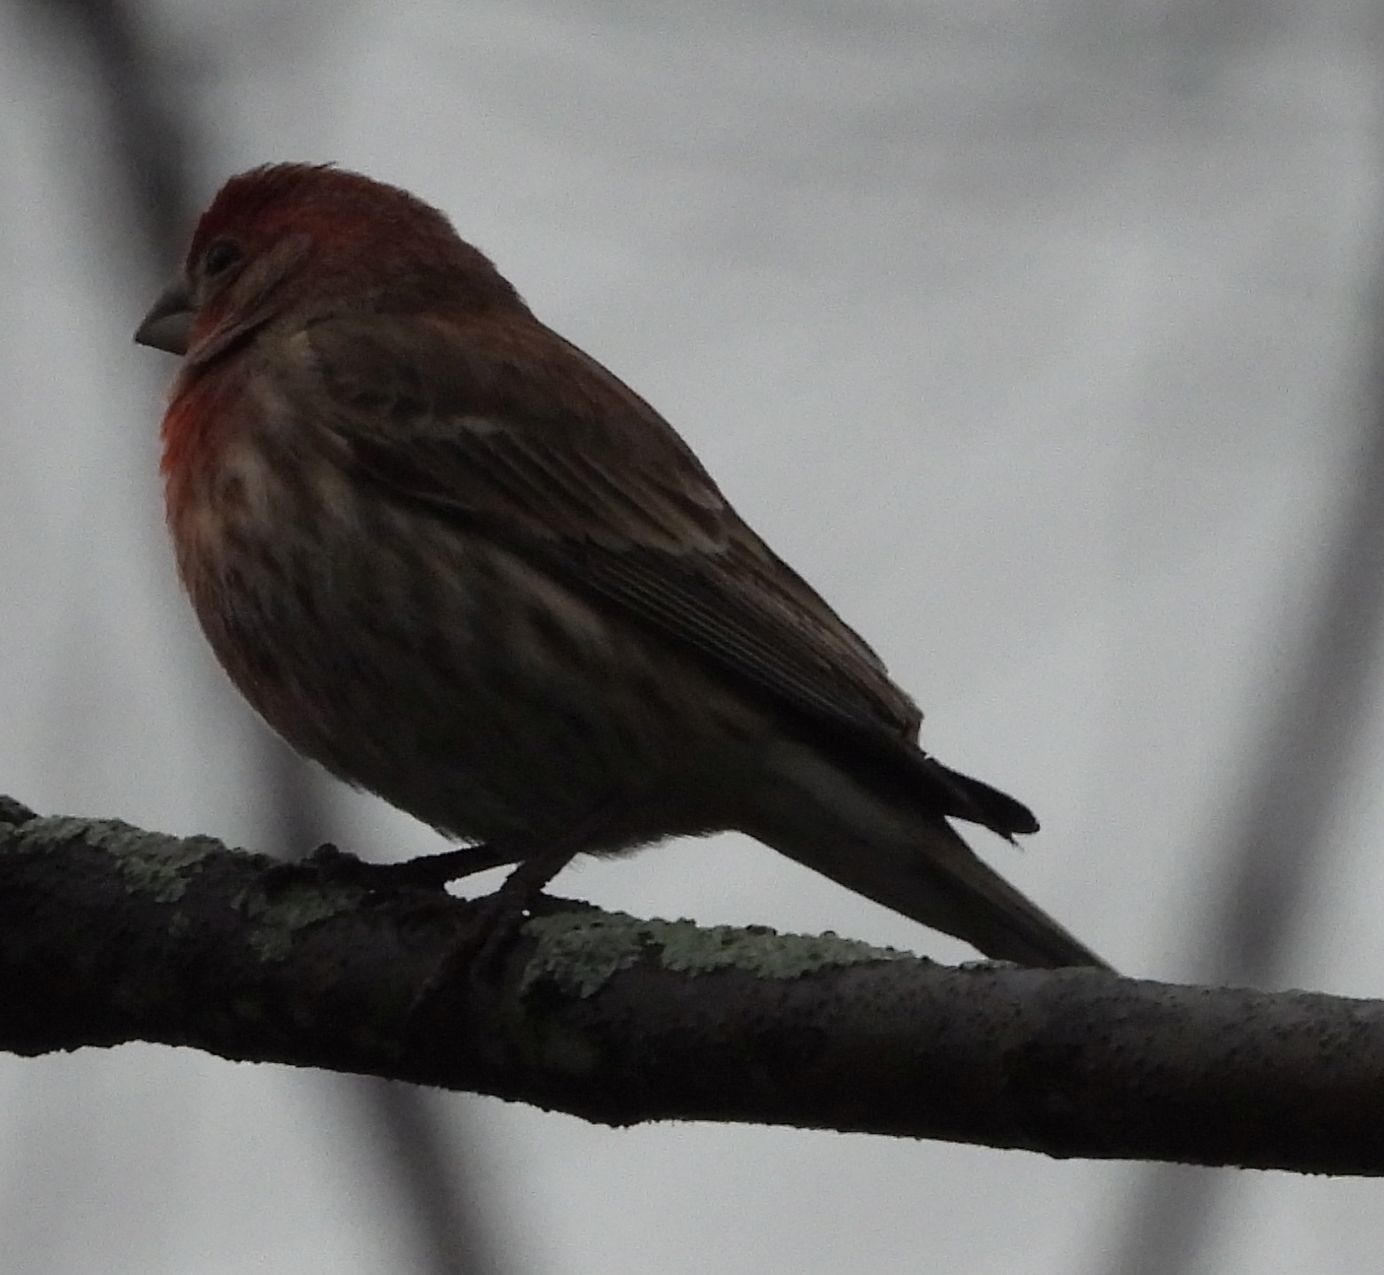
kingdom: Animalia
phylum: Chordata
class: Aves
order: Passeriformes
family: Fringillidae
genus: Haemorhous
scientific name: Haemorhous mexicanus
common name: House finch
